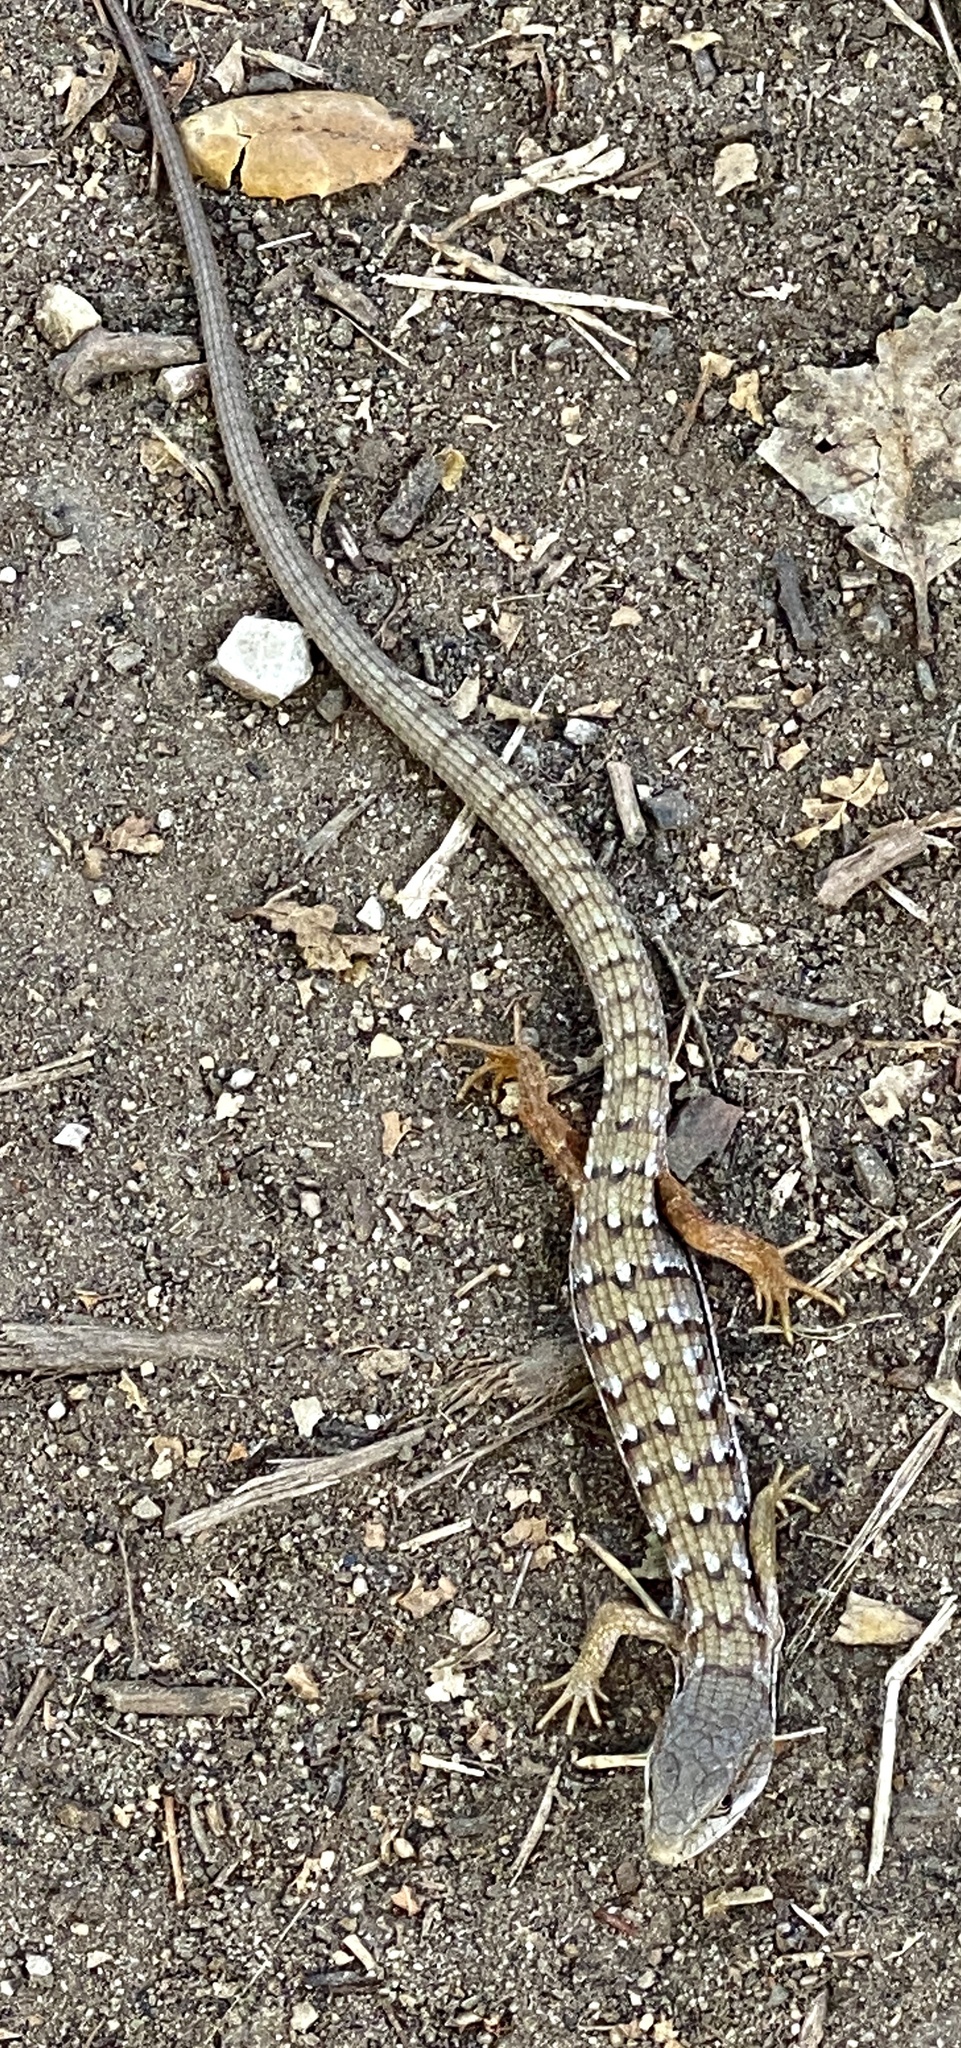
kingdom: Animalia
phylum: Chordata
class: Squamata
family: Anguidae
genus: Elgaria
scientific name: Elgaria multicarinata
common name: Southern alligator lizard
